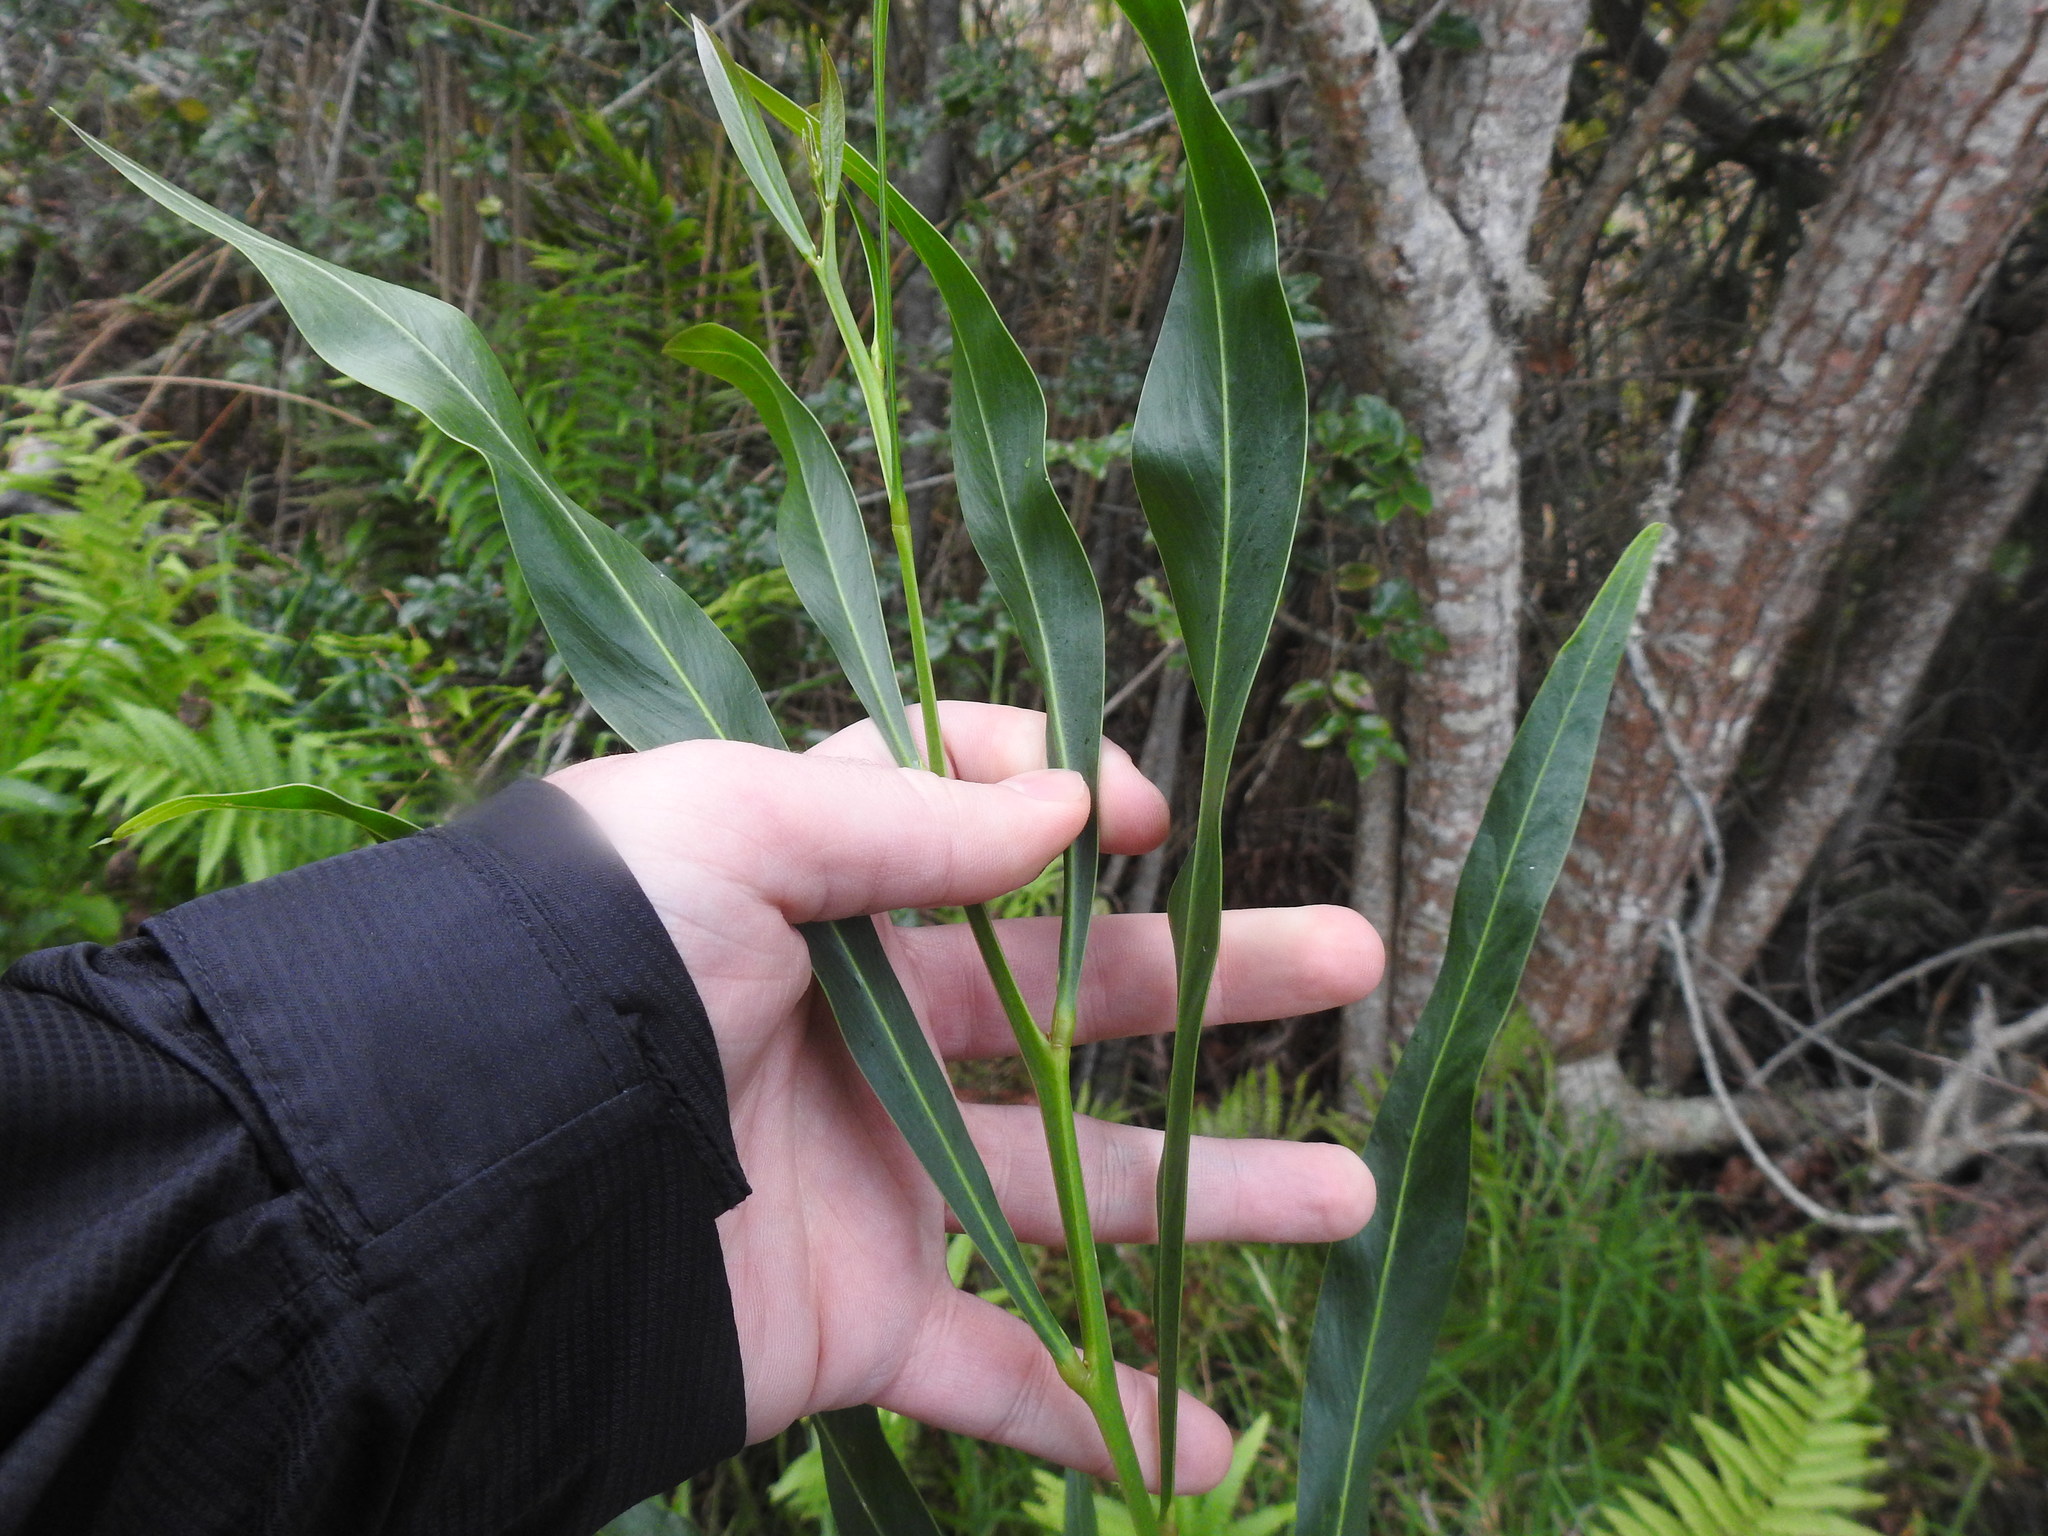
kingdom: Plantae
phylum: Tracheophyta
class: Magnoliopsida
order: Fabales
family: Fabaceae
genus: Acacia
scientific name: Acacia saligna
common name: Orange wattle
